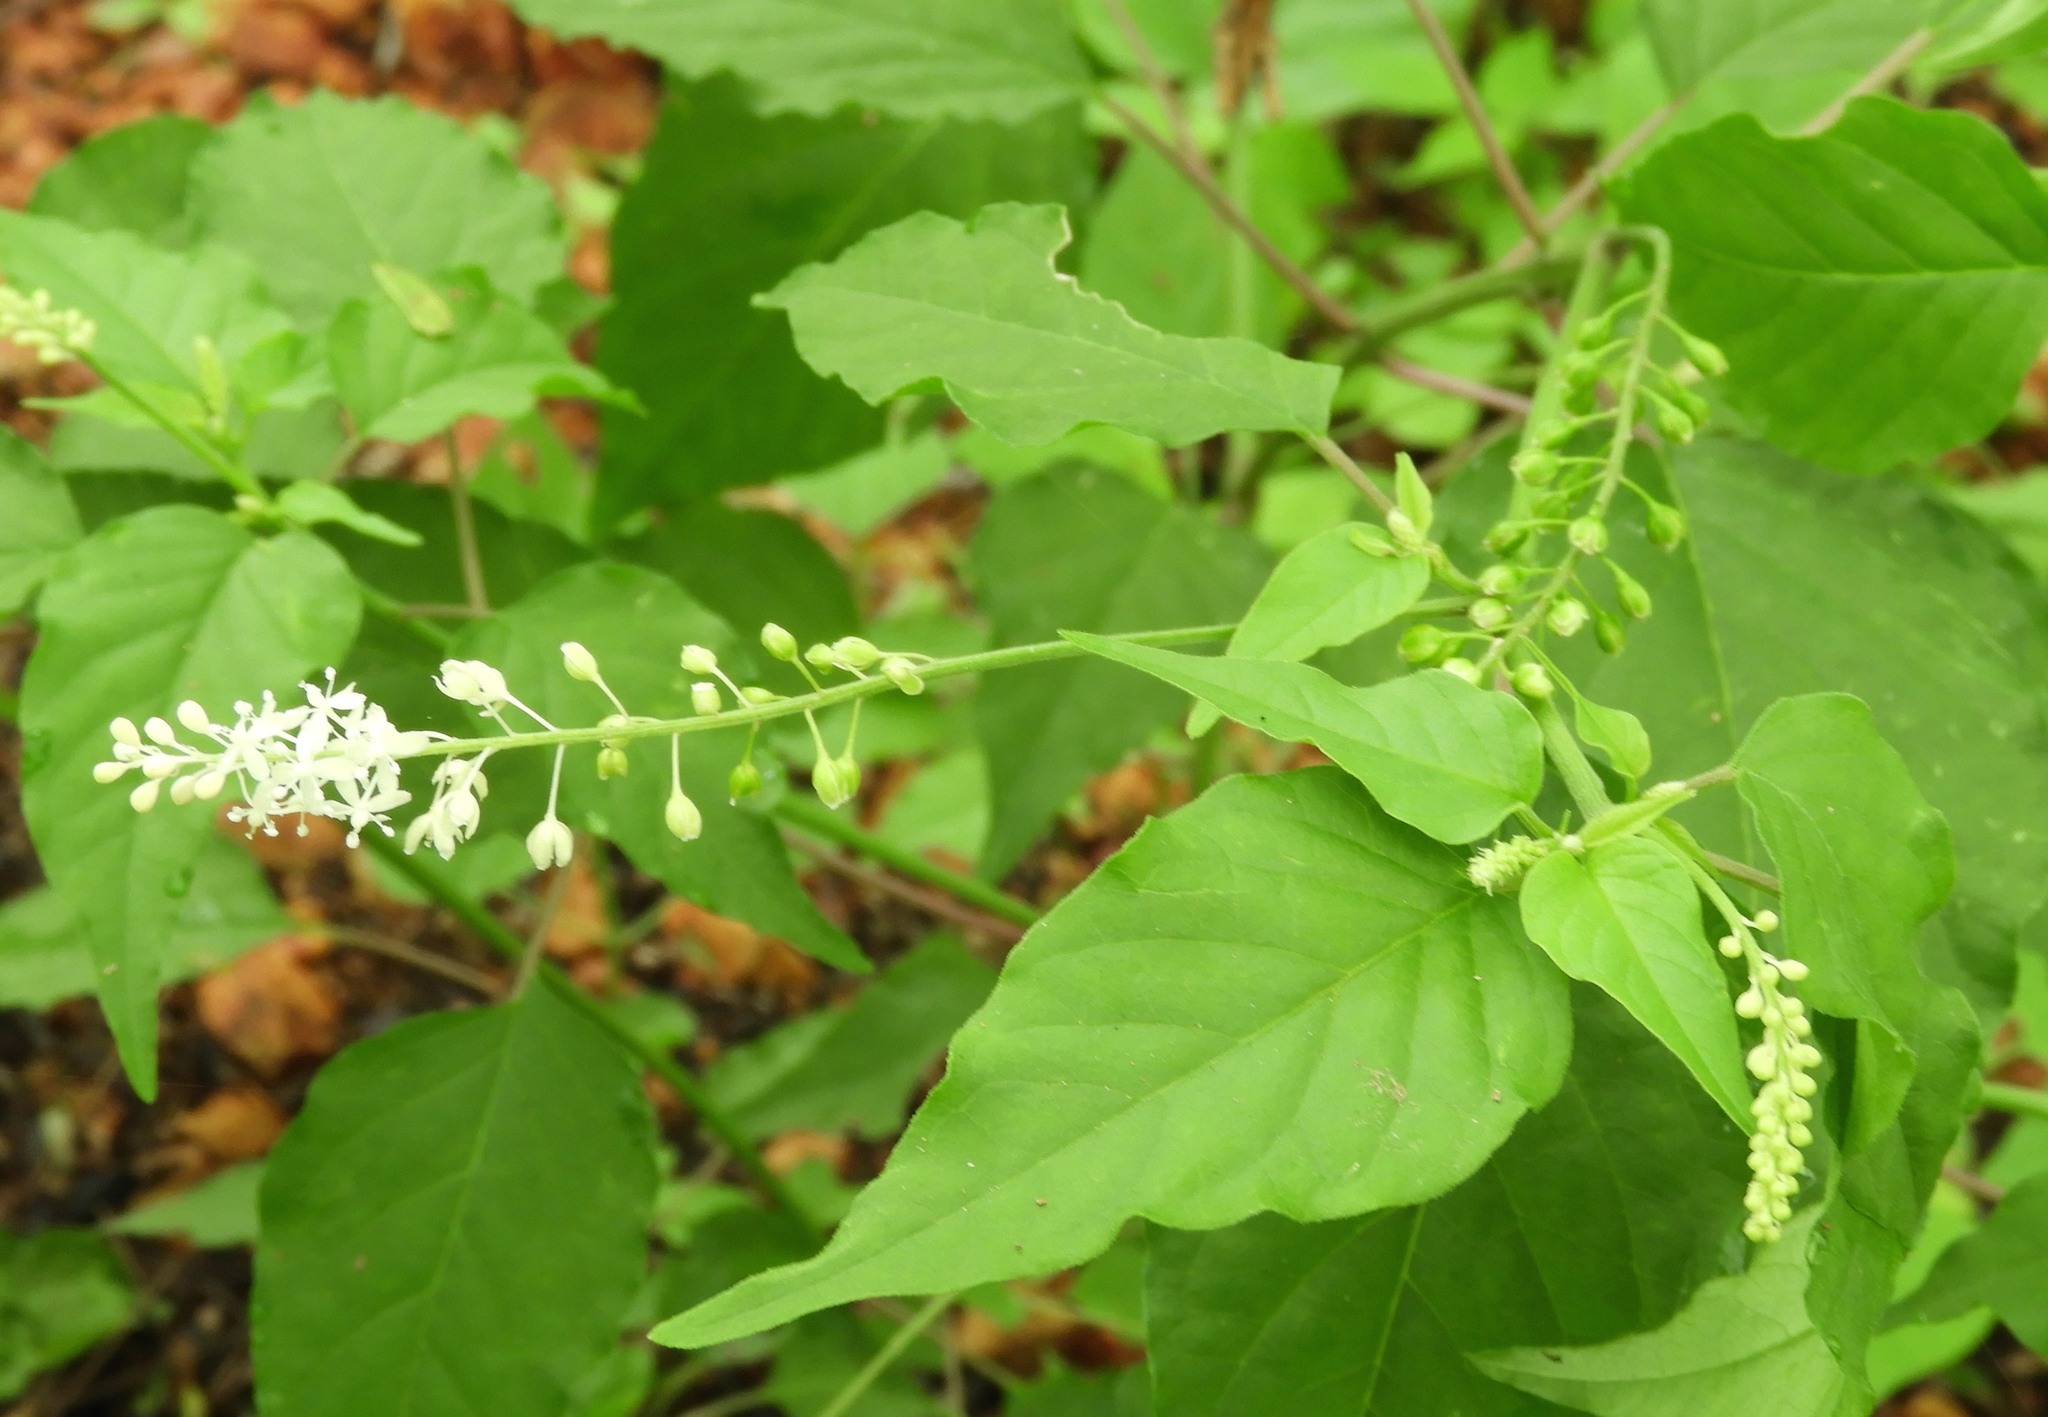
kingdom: Plantae
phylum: Tracheophyta
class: Magnoliopsida
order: Caryophyllales
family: Phytolaccaceae
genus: Rivina
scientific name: Rivina humilis
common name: Rougeplant
